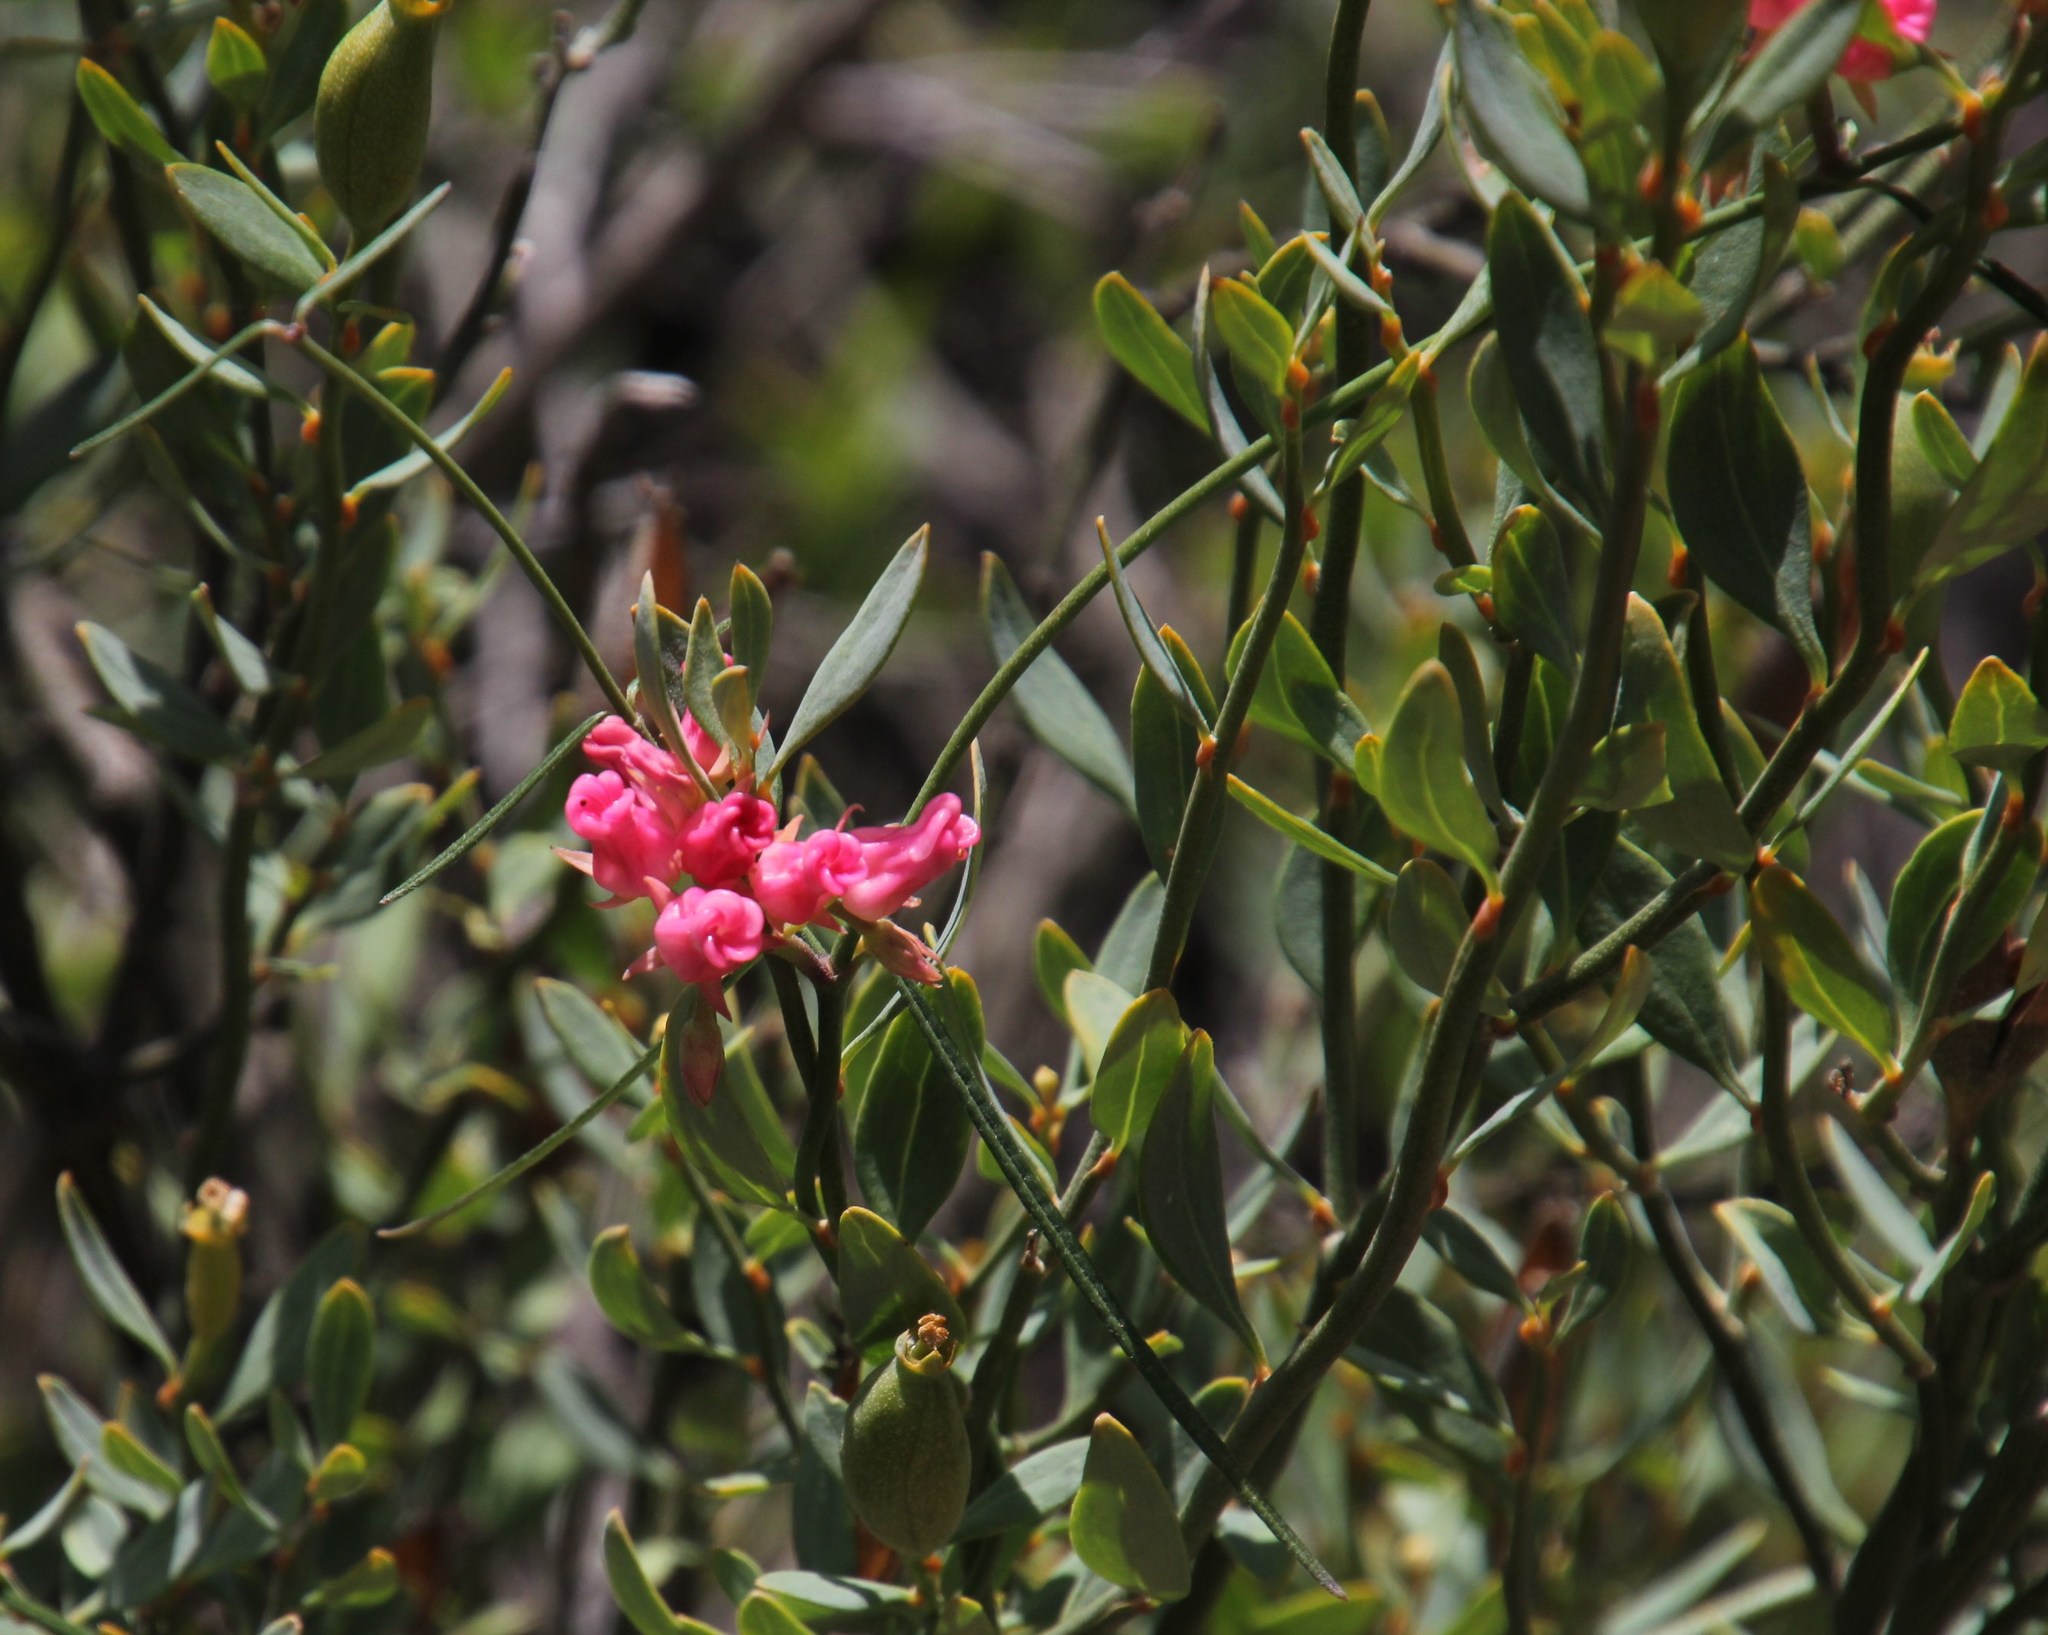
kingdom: Plantae
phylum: Tracheophyta
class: Magnoliopsida
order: Gentianales
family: Apocynaceae
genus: Microloma
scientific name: Microloma tenuifolium
